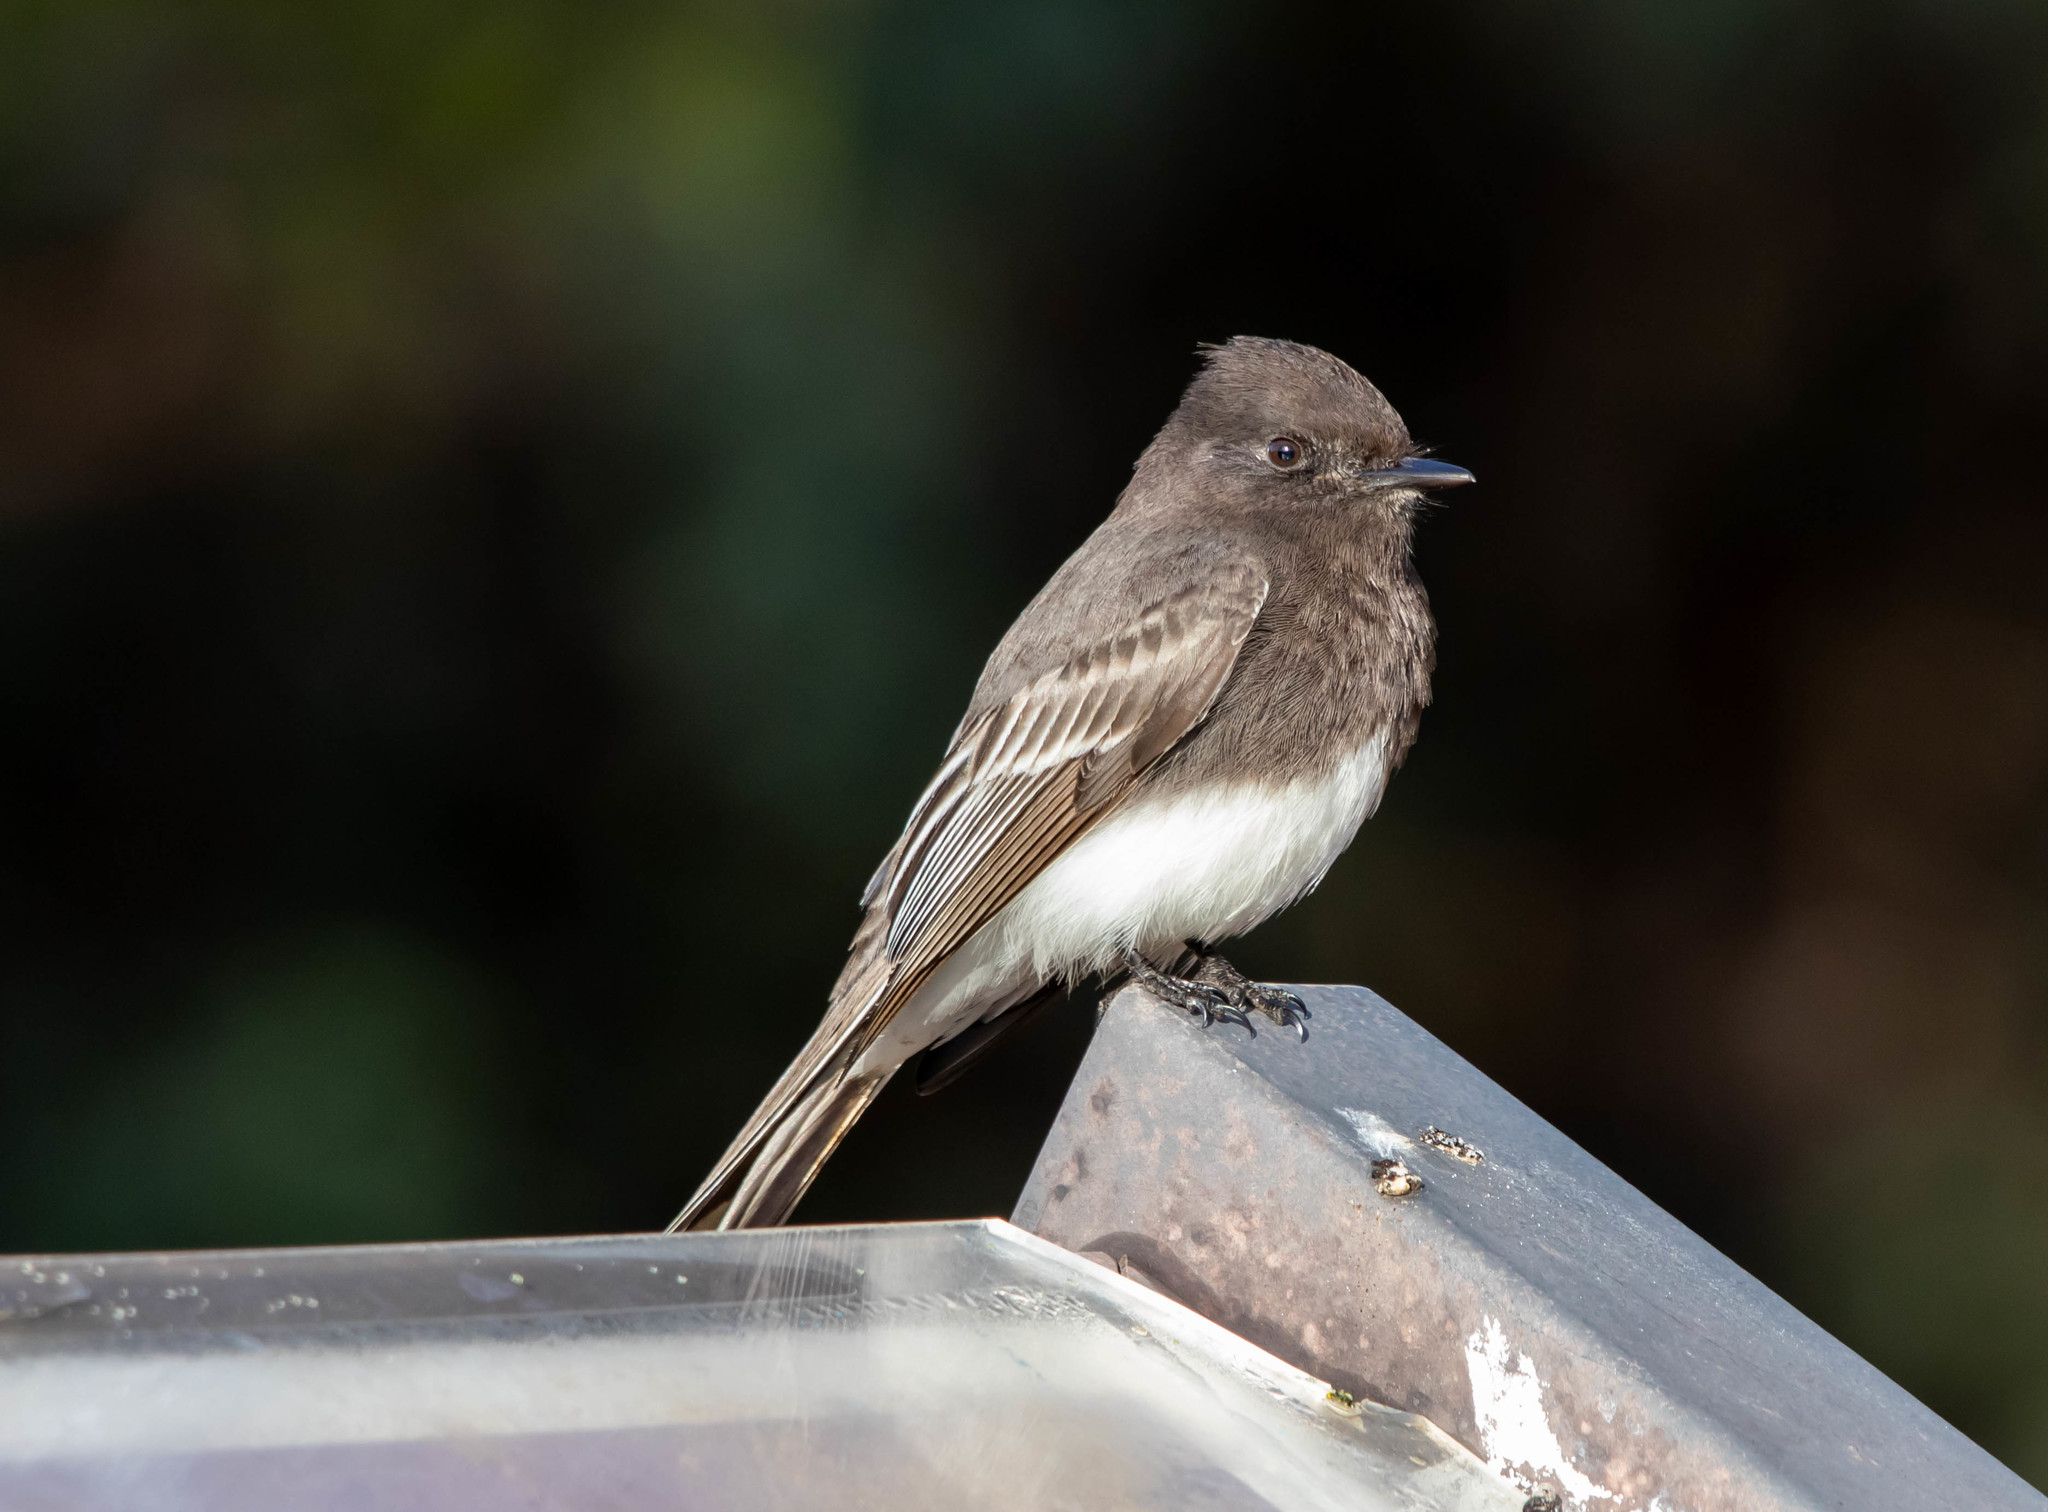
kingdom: Animalia
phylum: Chordata
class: Aves
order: Passeriformes
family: Tyrannidae
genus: Sayornis
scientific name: Sayornis nigricans
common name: Black phoebe
